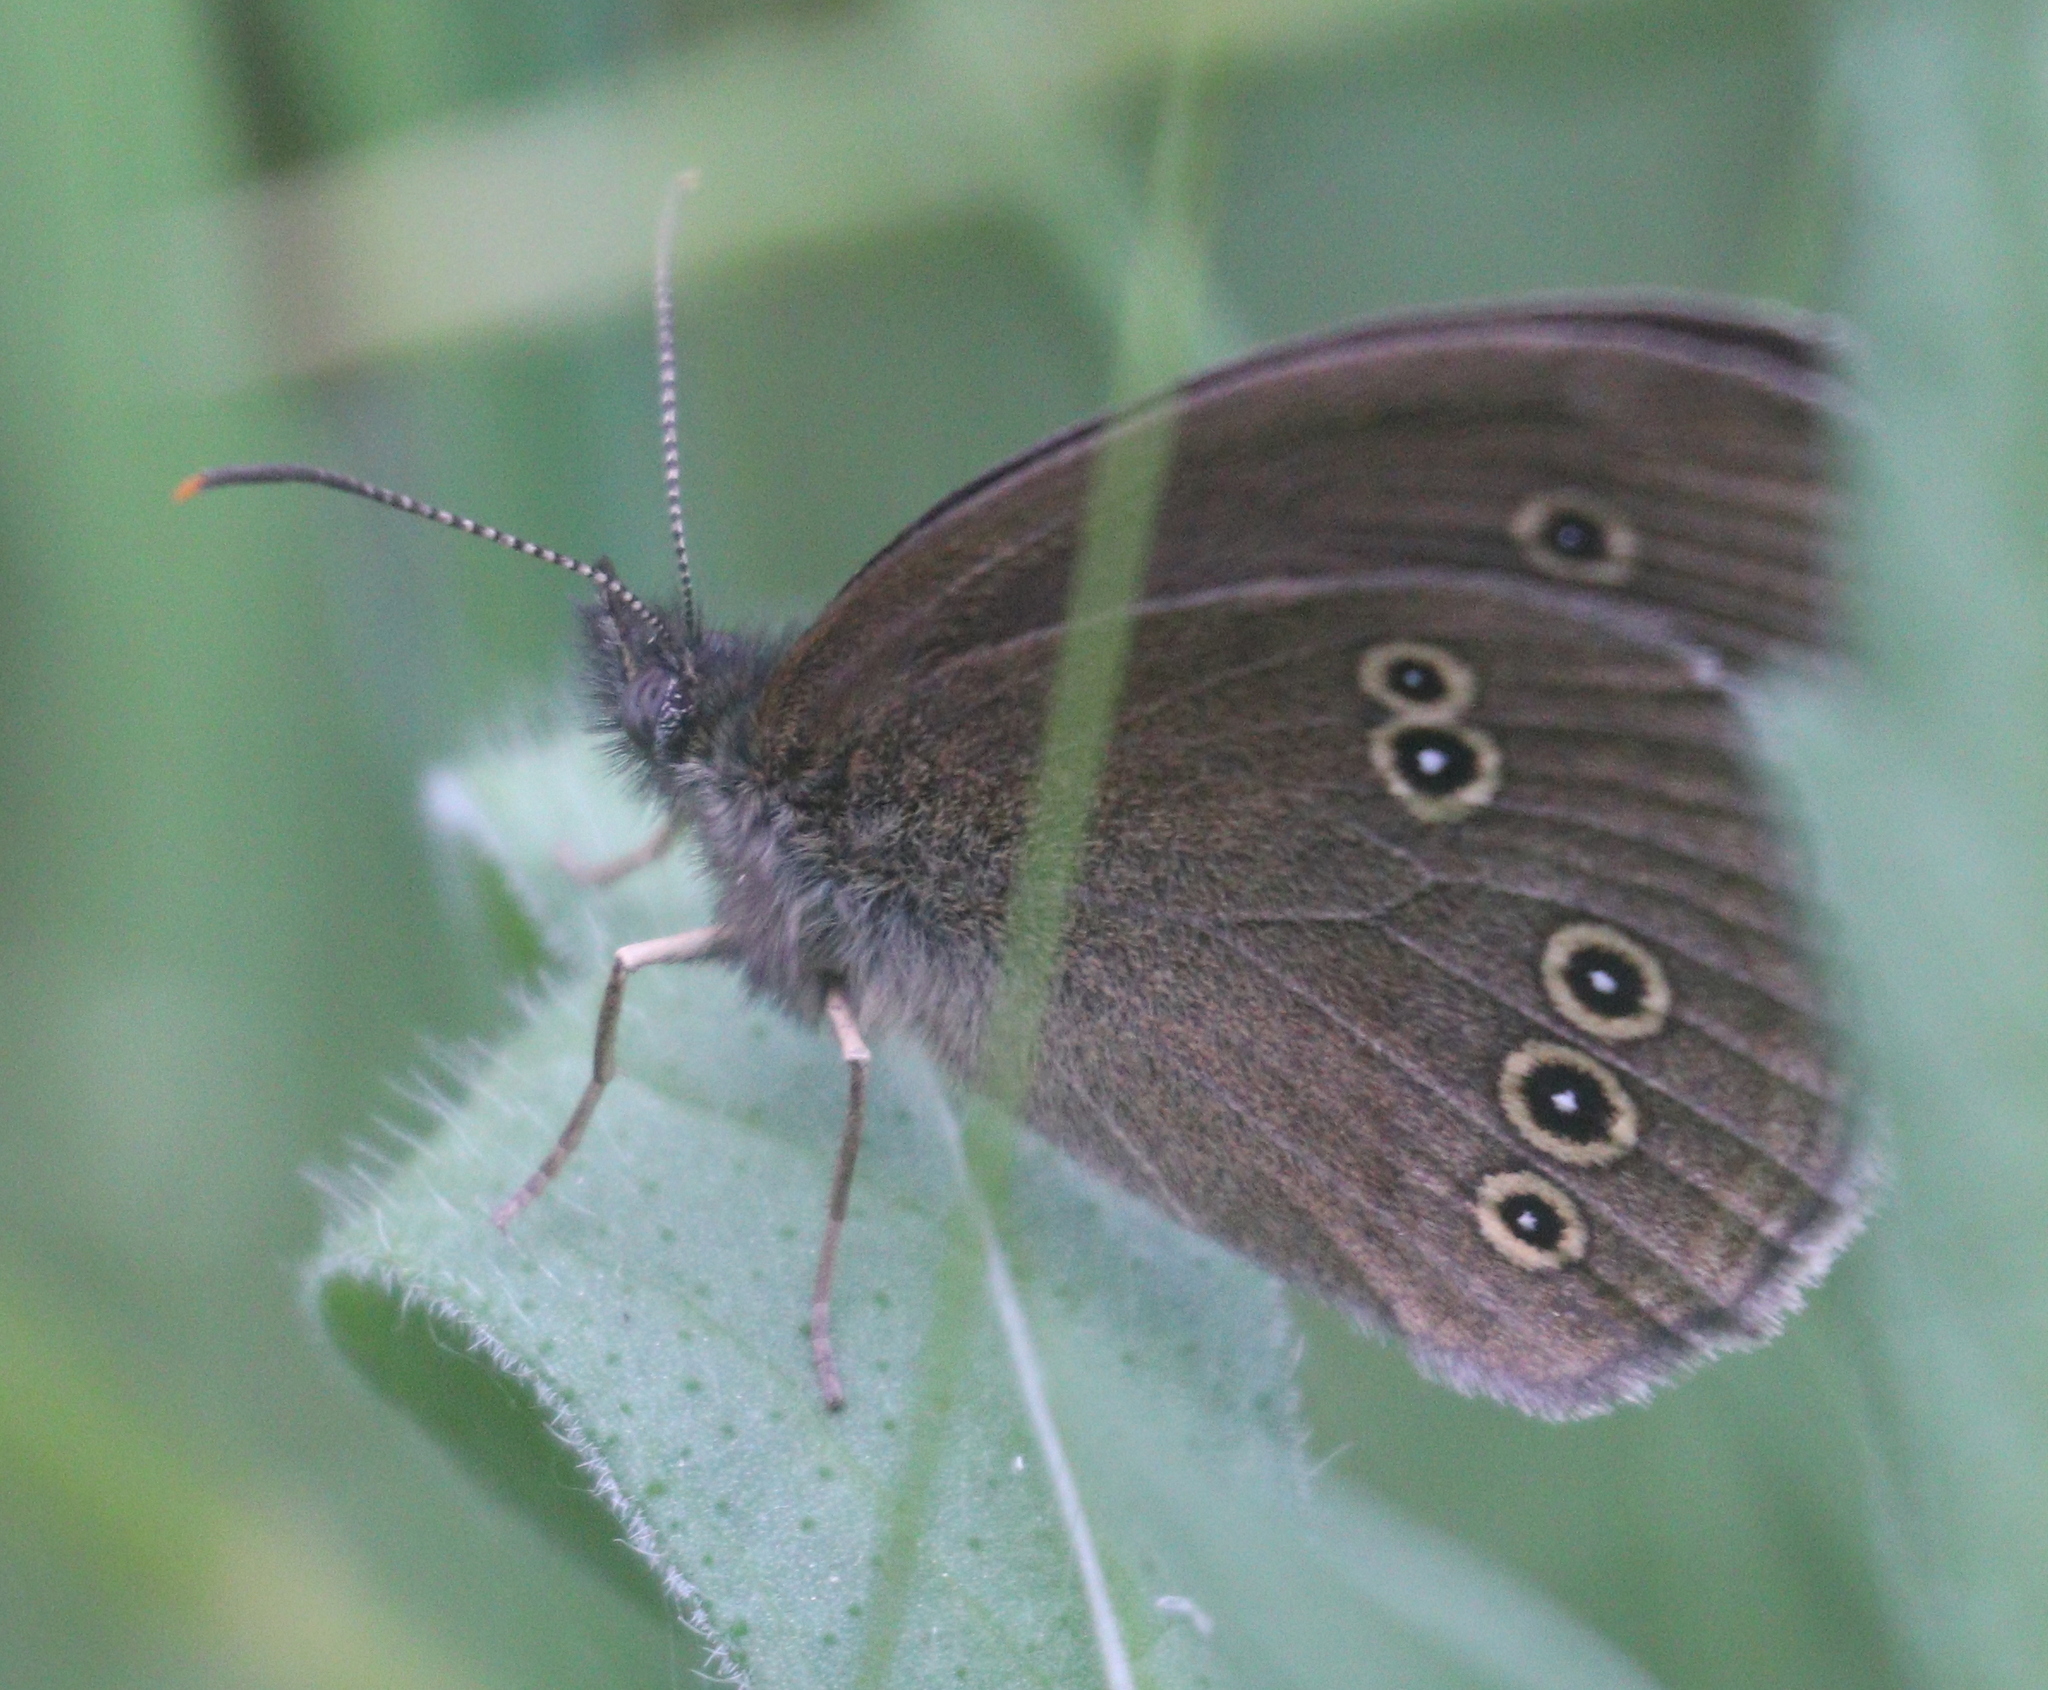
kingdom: Animalia
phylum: Arthropoda
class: Insecta
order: Lepidoptera
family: Nymphalidae
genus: Aphantopus
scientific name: Aphantopus hyperantus
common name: Ringlet
